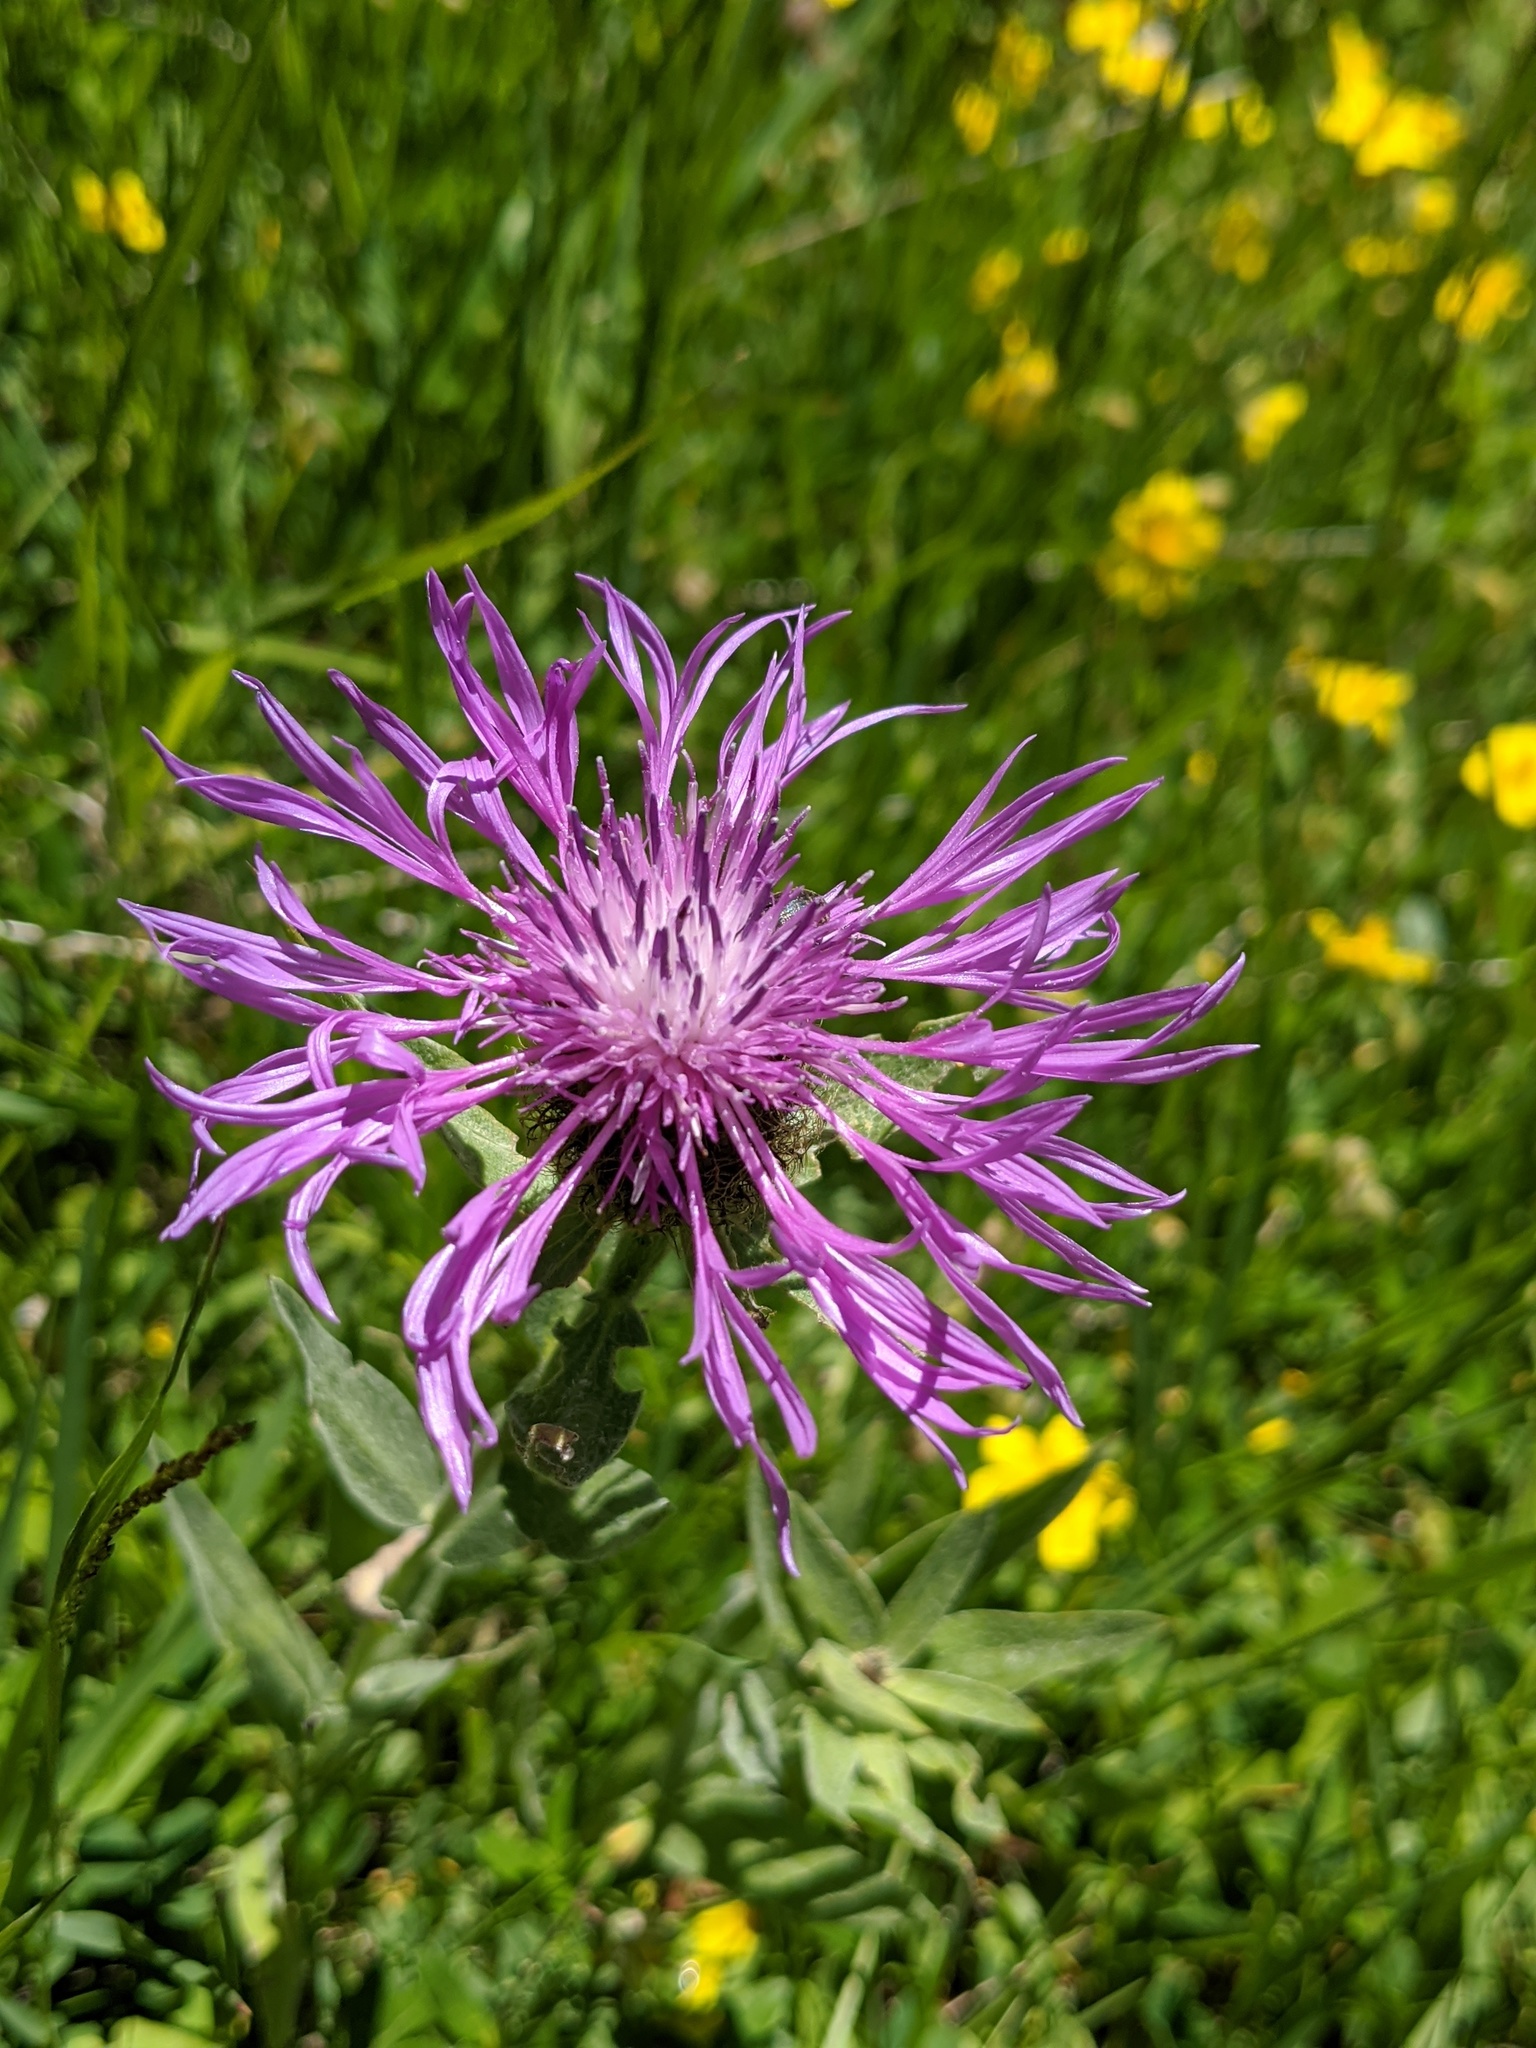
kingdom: Plantae
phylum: Tracheophyta
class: Magnoliopsida
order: Asterales
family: Asteraceae
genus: Centaurea
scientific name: Centaurea uniflora
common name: Singleflower knapweed
